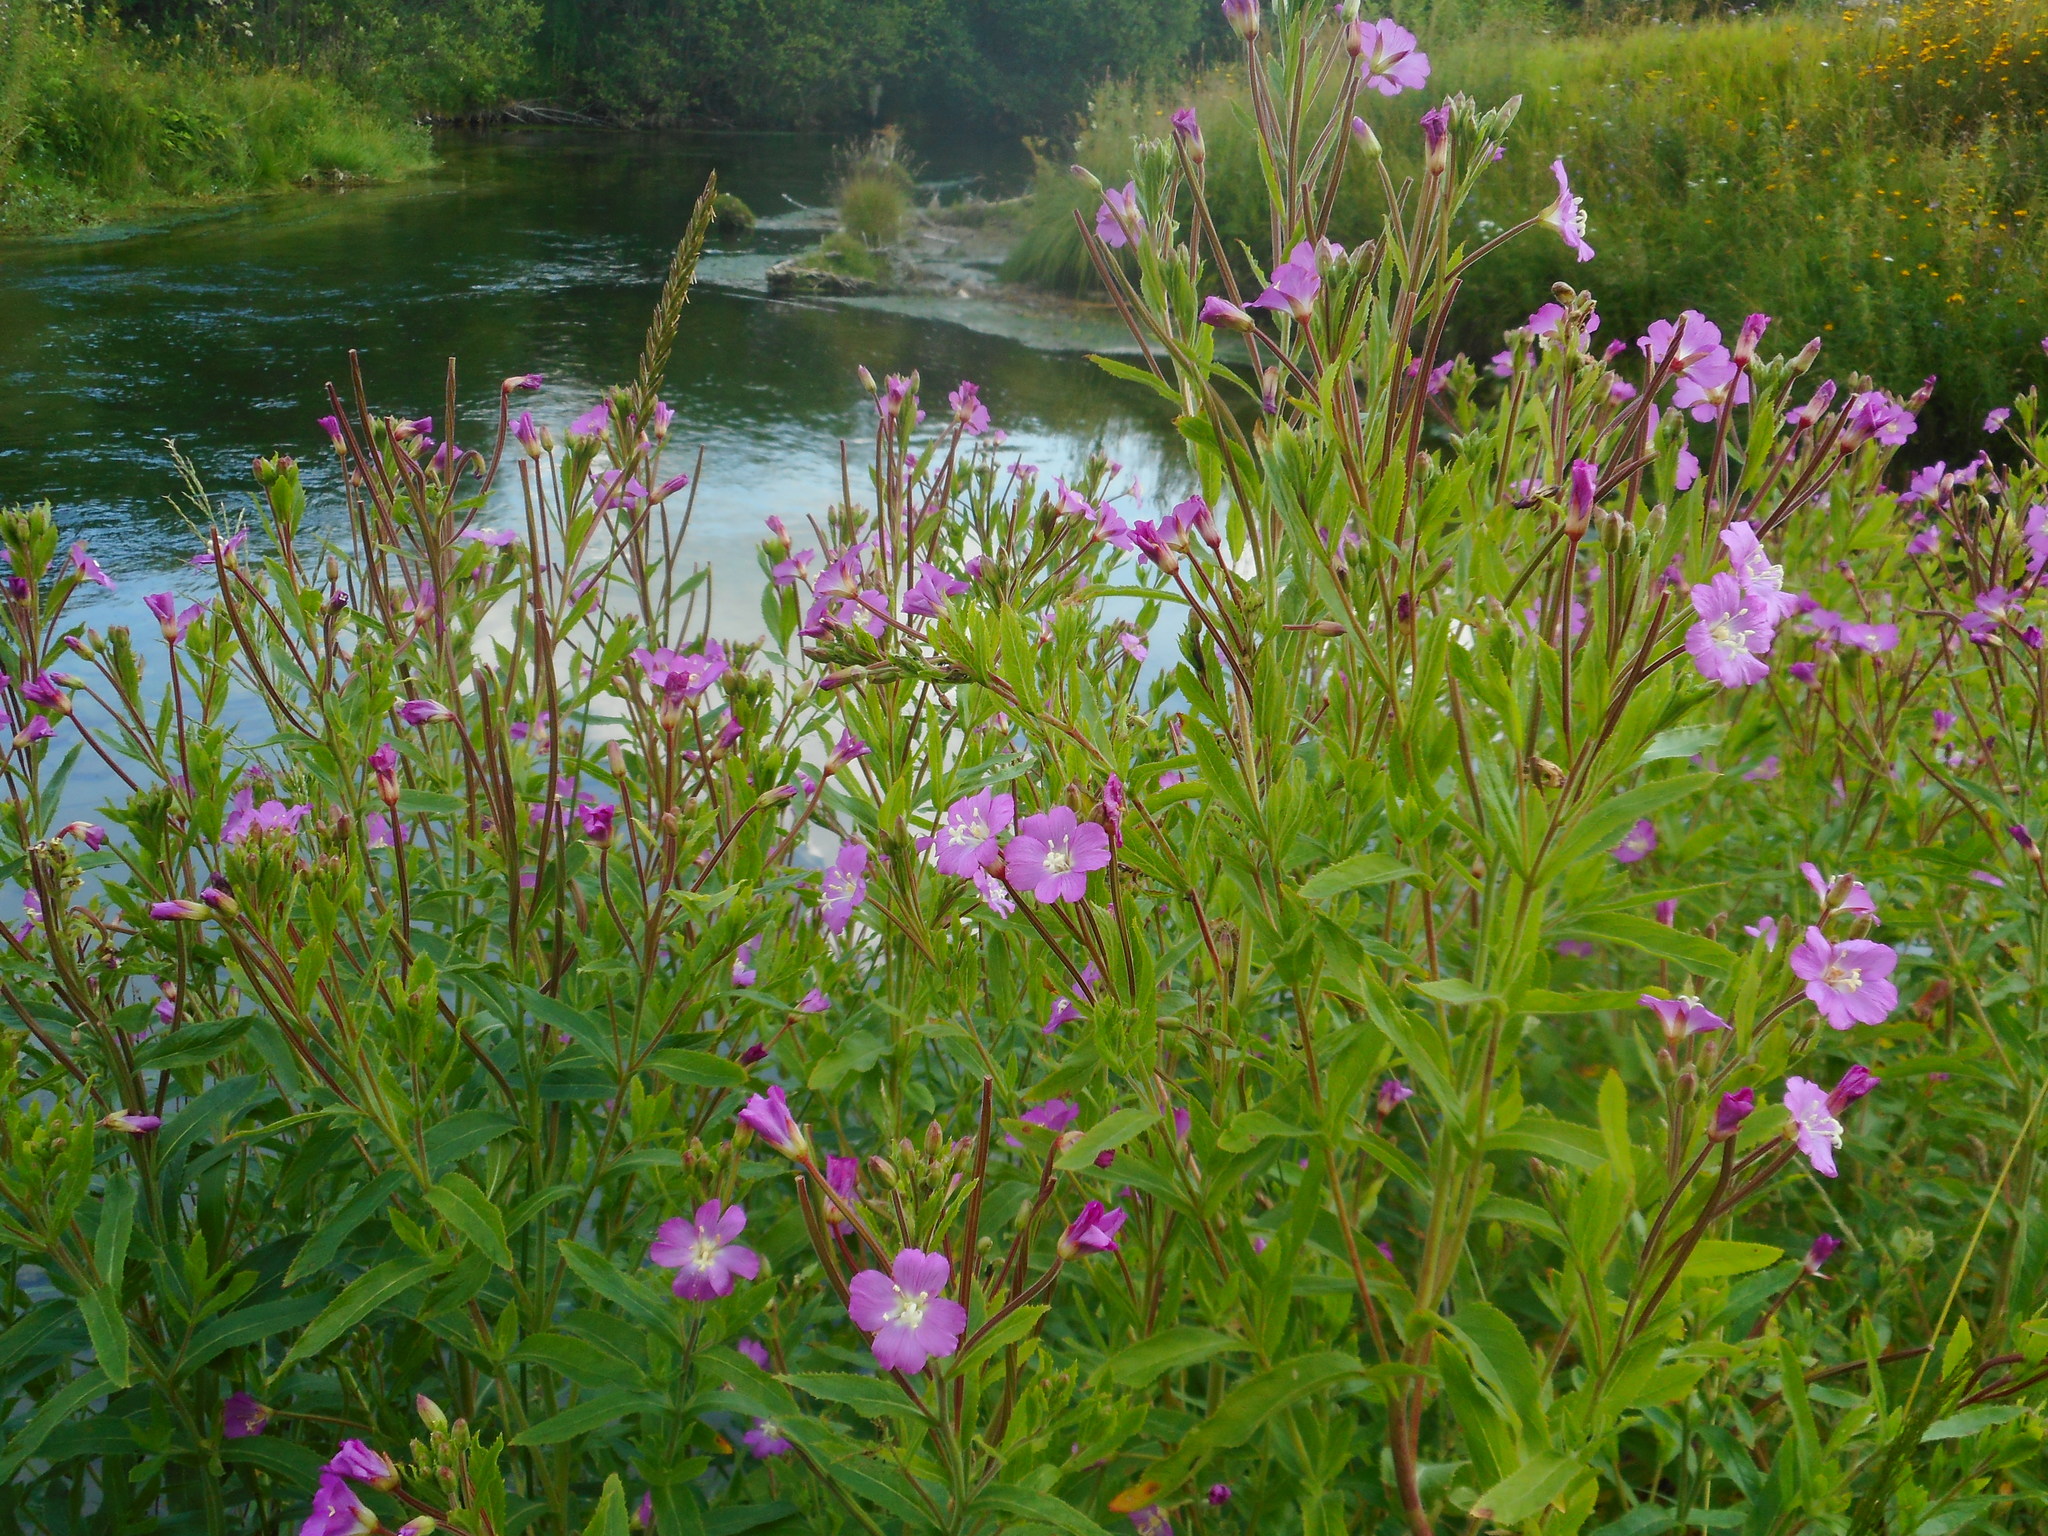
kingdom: Plantae
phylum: Tracheophyta
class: Magnoliopsida
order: Myrtales
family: Onagraceae
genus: Epilobium
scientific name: Epilobium hirsutum
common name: Great willowherb
